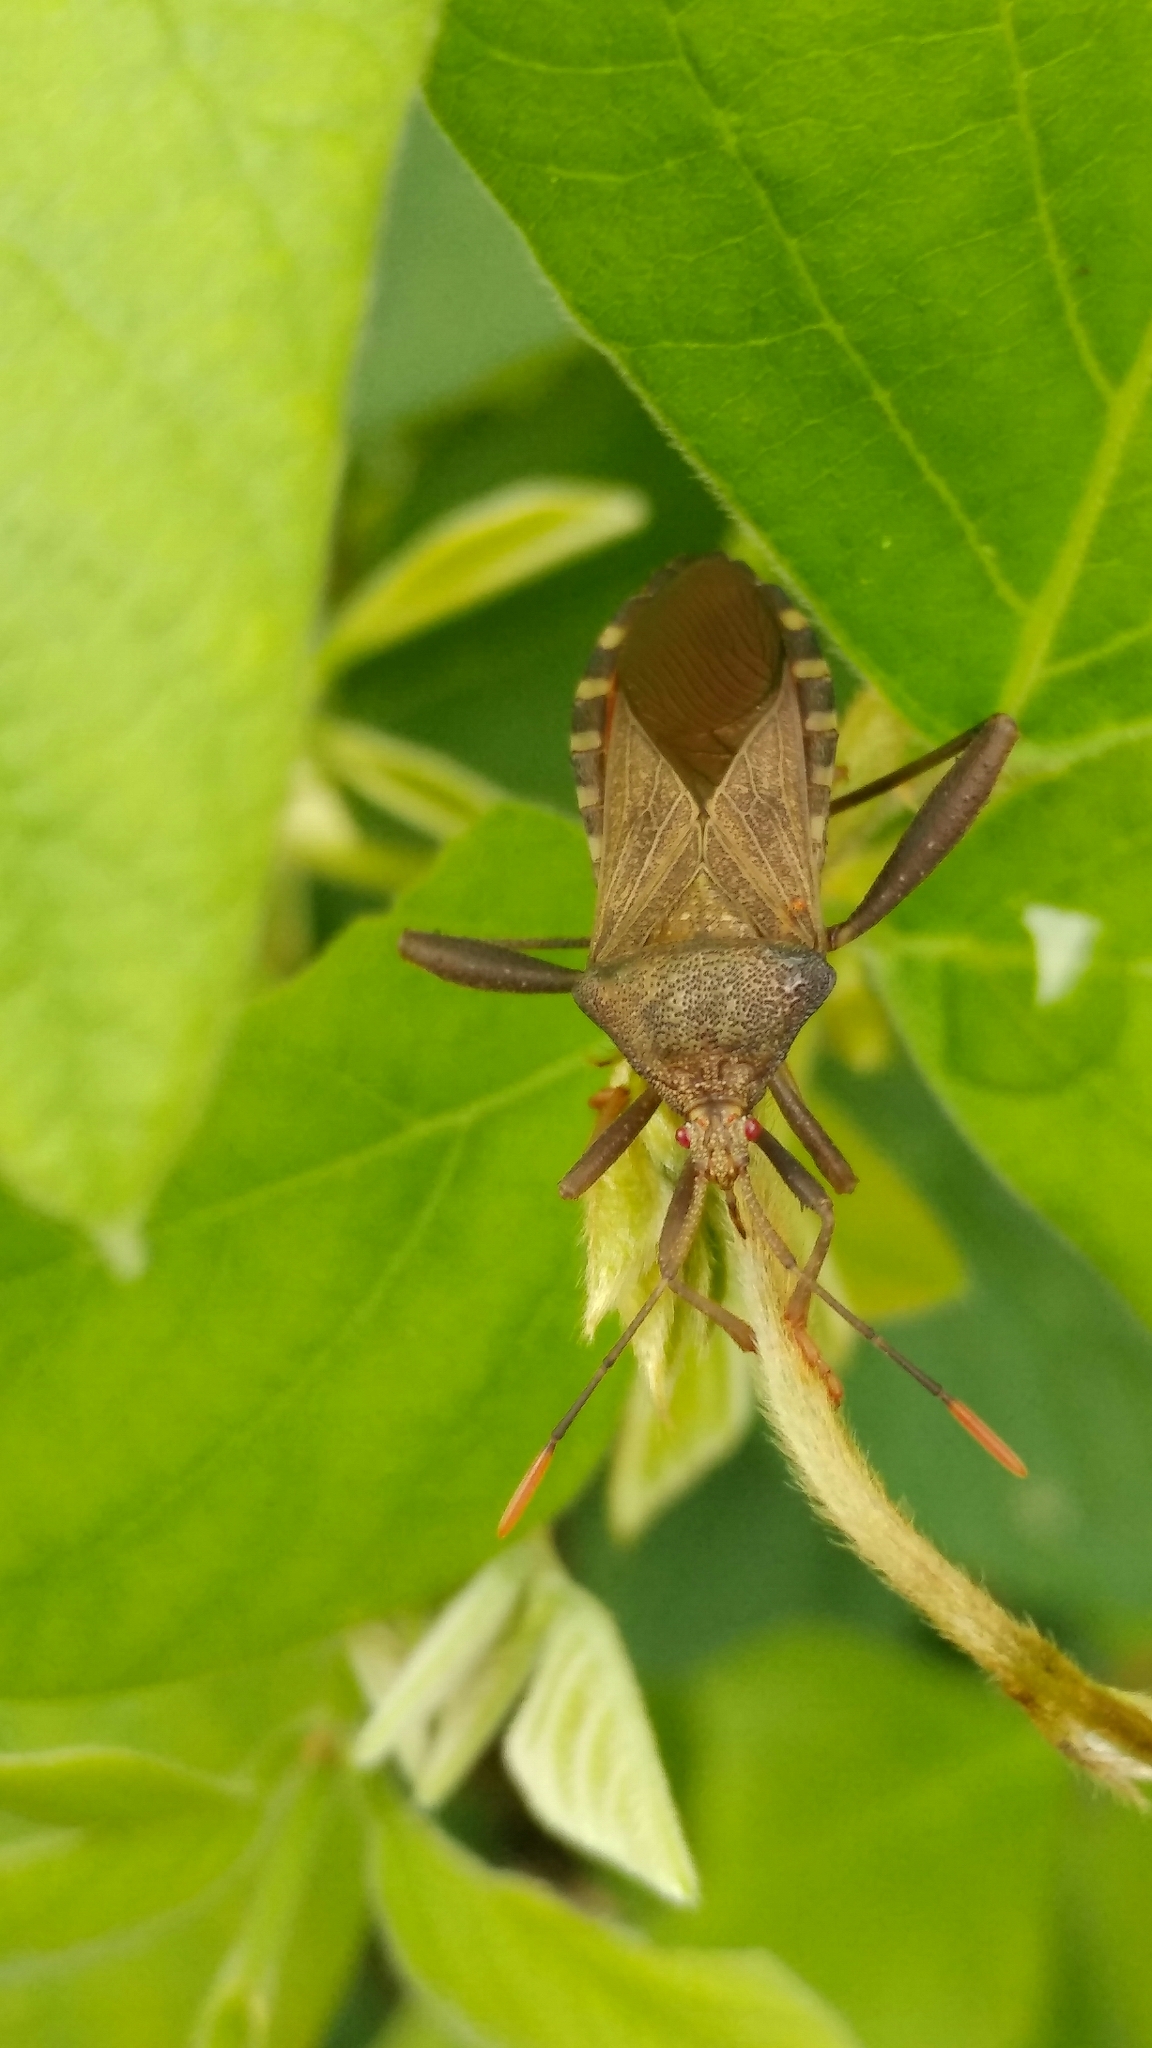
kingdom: Animalia
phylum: Arthropoda
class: Insecta
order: Hemiptera
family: Coreidae
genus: Piezogaster
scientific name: Piezogaster basilicus
